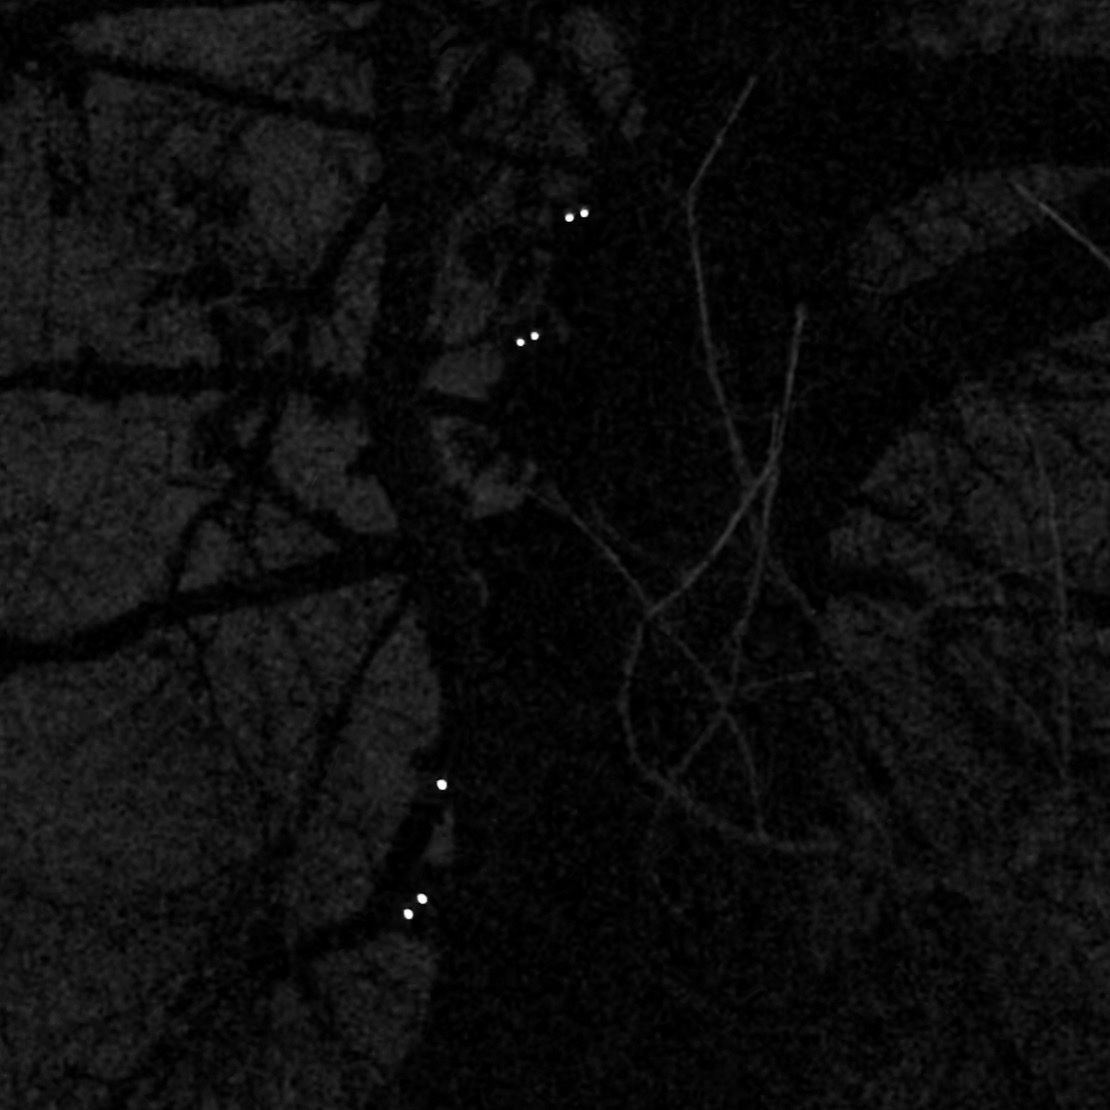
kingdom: Animalia
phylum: Chordata
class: Mammalia
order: Carnivora
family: Procyonidae
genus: Procyon
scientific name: Procyon lotor
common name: Raccoon
